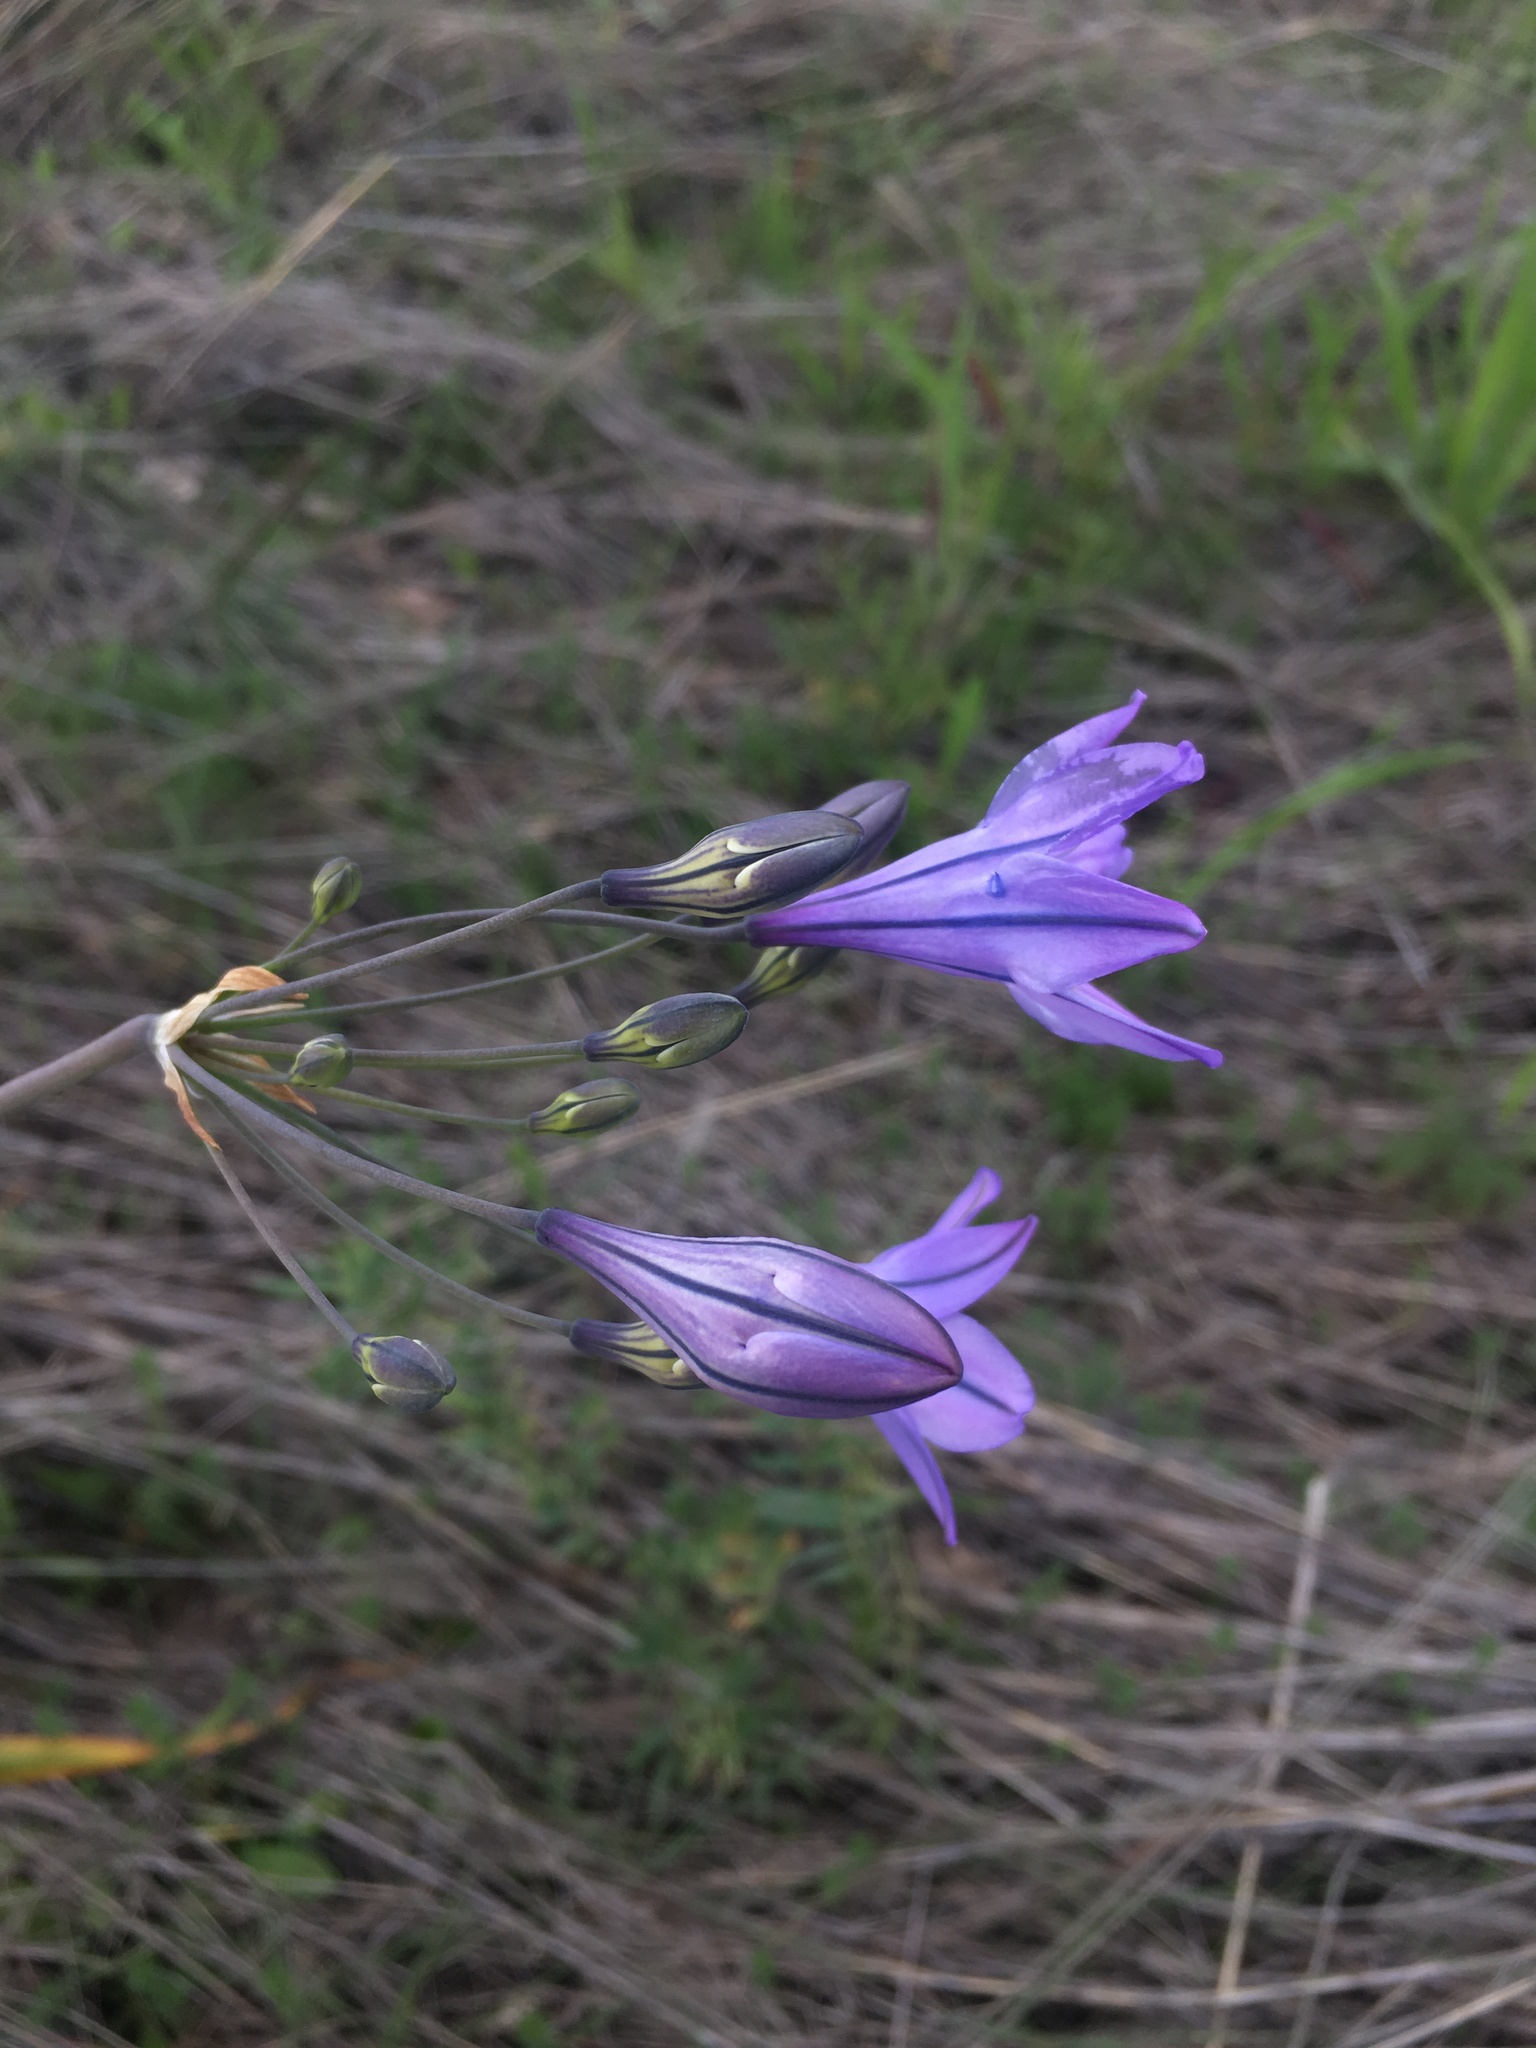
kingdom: Plantae
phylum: Tracheophyta
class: Liliopsida
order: Asparagales
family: Asparagaceae
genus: Triteleia
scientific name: Triteleia laxa
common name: Triplet-lily
